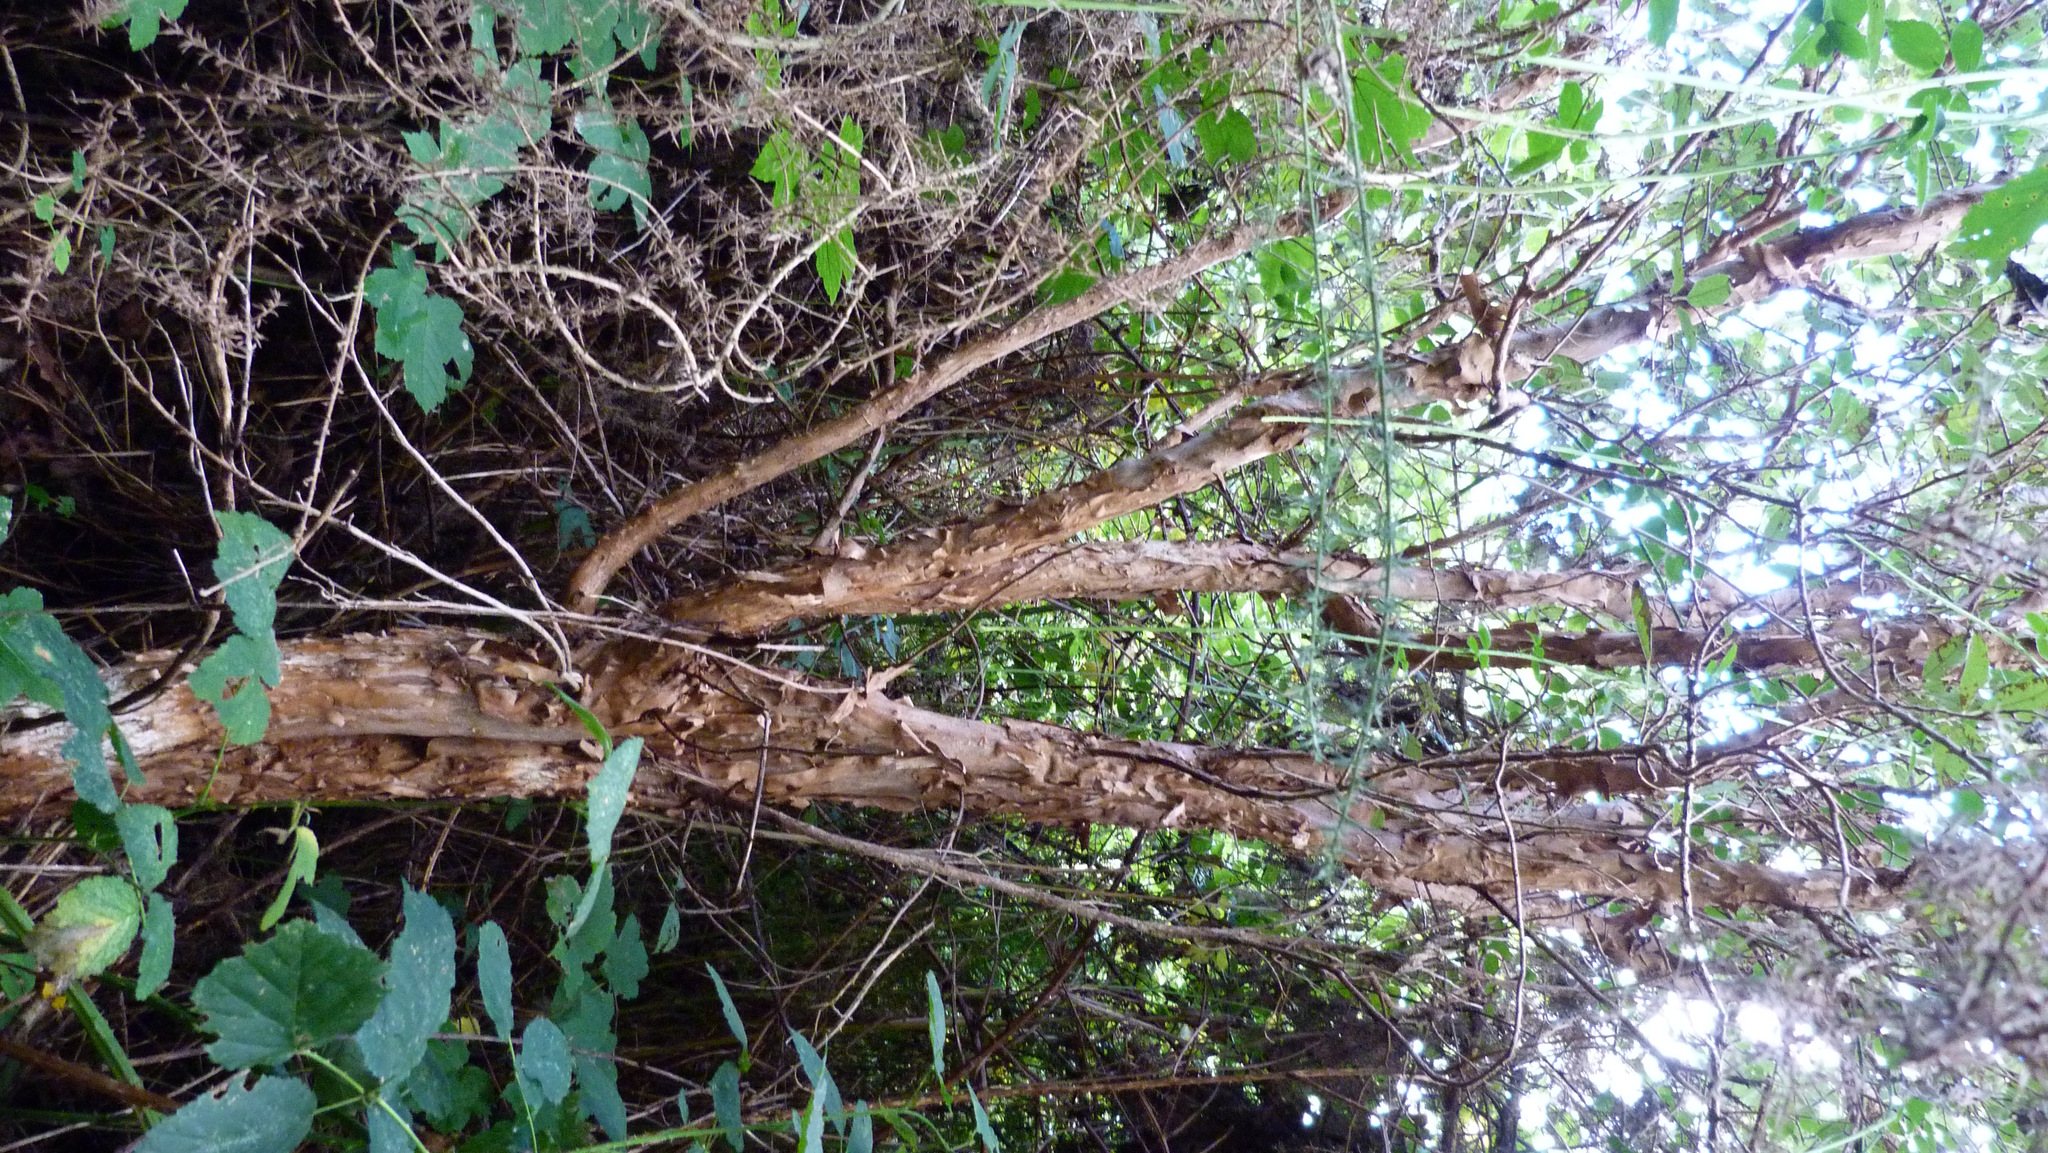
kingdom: Plantae
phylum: Tracheophyta
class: Magnoliopsida
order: Myrtales
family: Onagraceae
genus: Fuchsia
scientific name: Fuchsia excorticata
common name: Tree fuchsia
